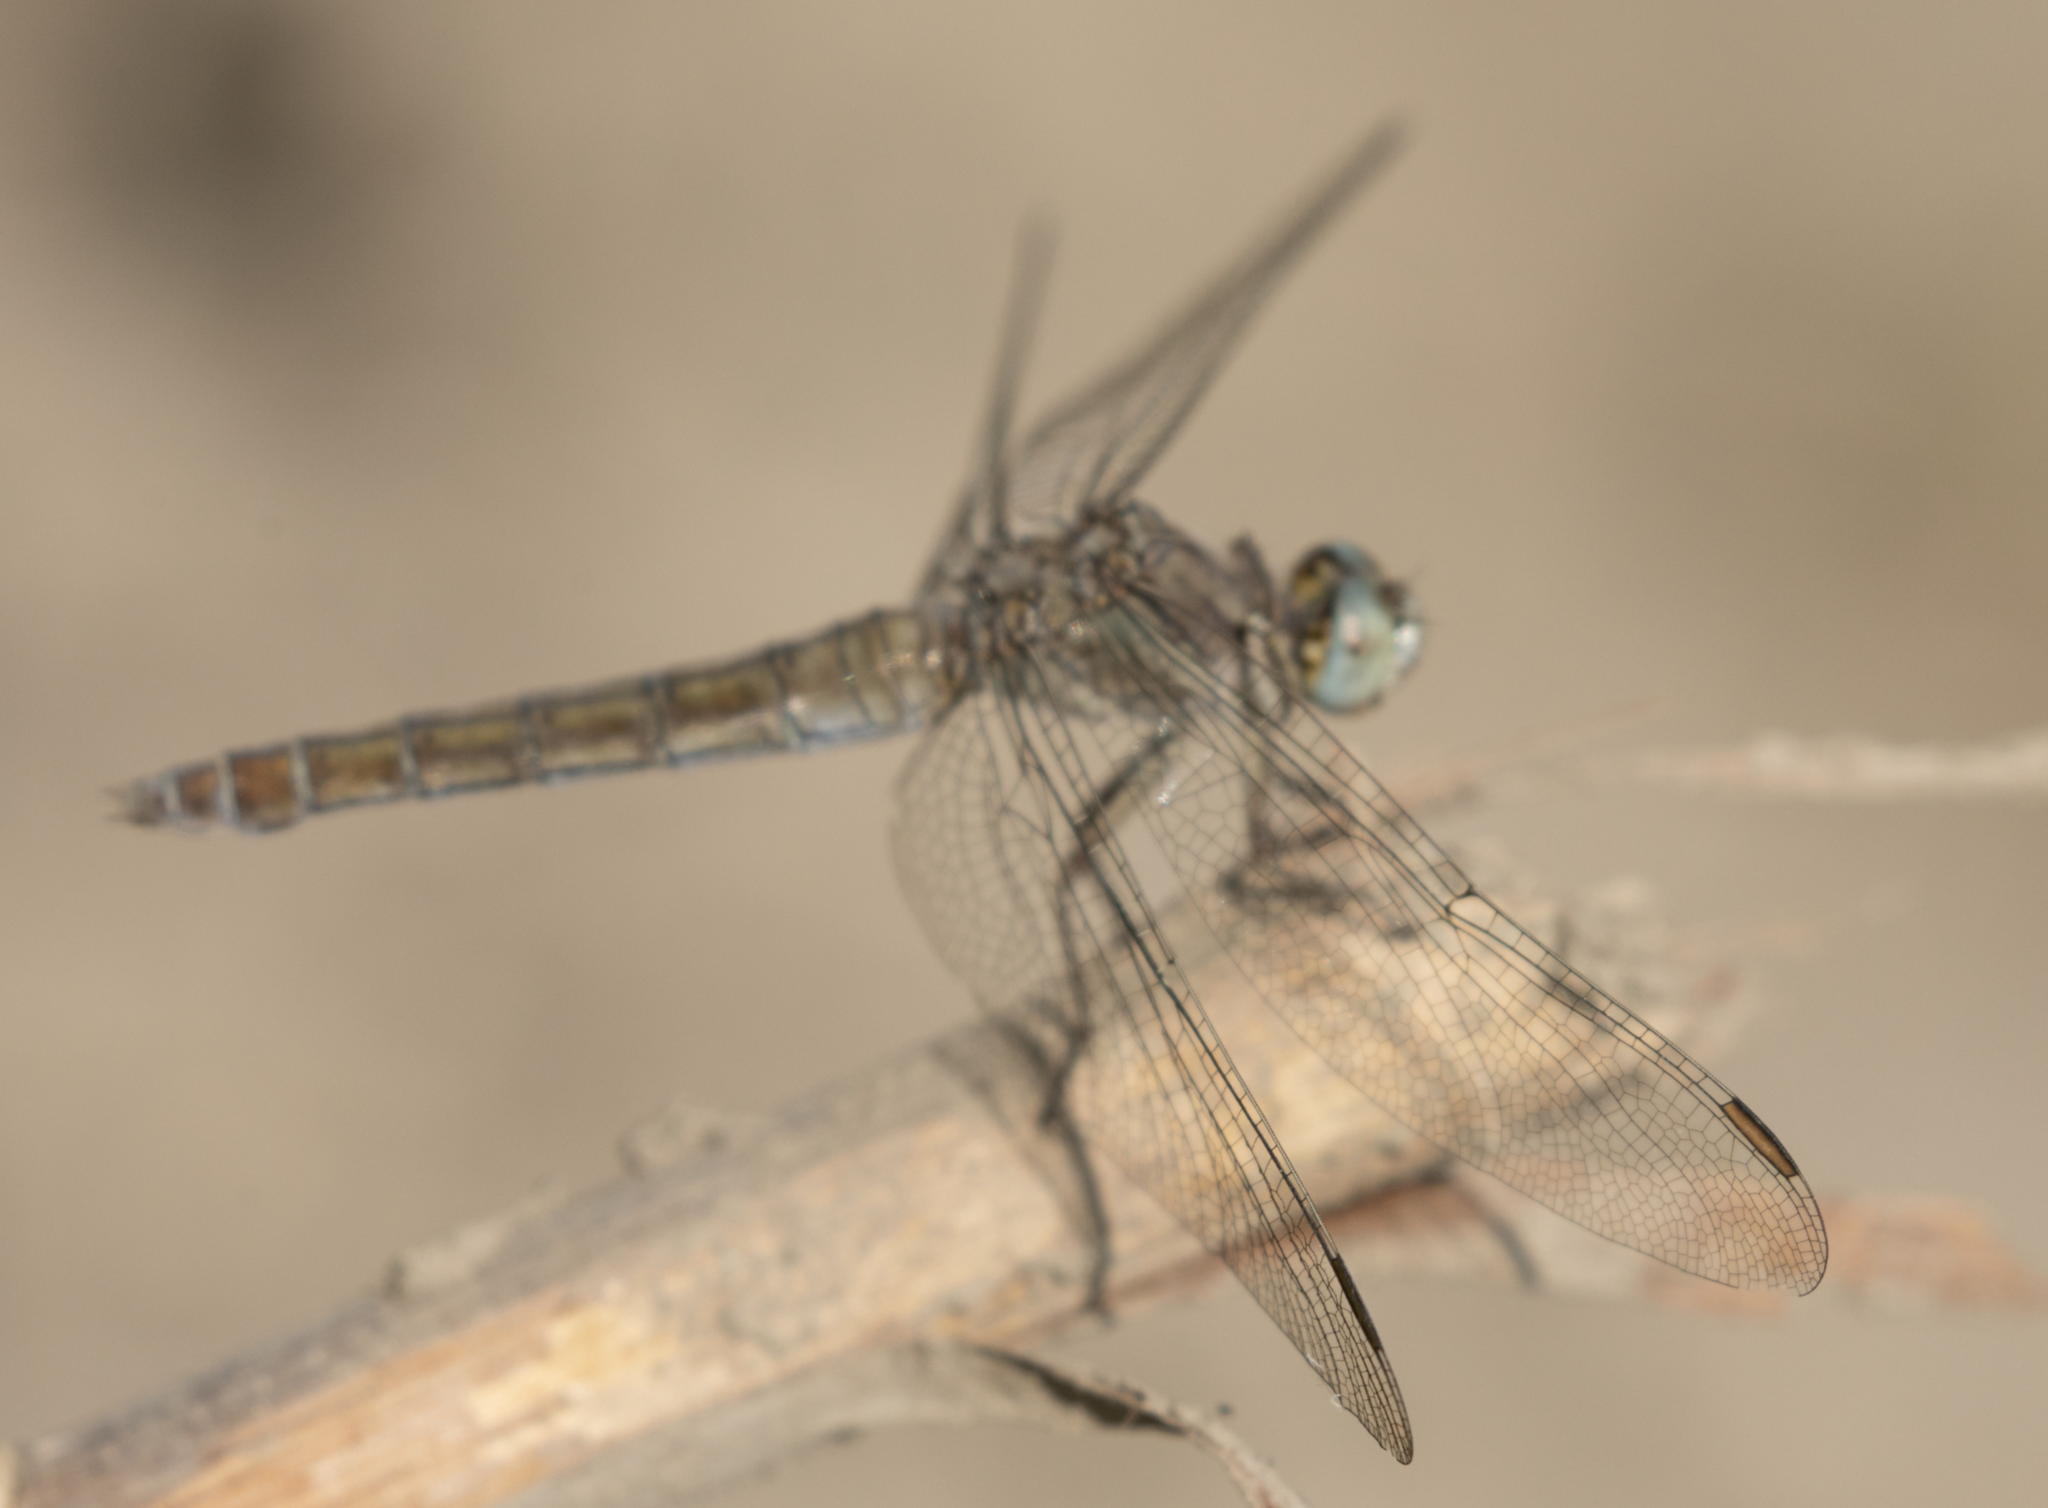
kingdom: Animalia
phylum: Arthropoda
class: Insecta
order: Odonata
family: Libellulidae
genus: Orthetrum
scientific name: Orthetrum brunneum
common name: Southern skimmer
